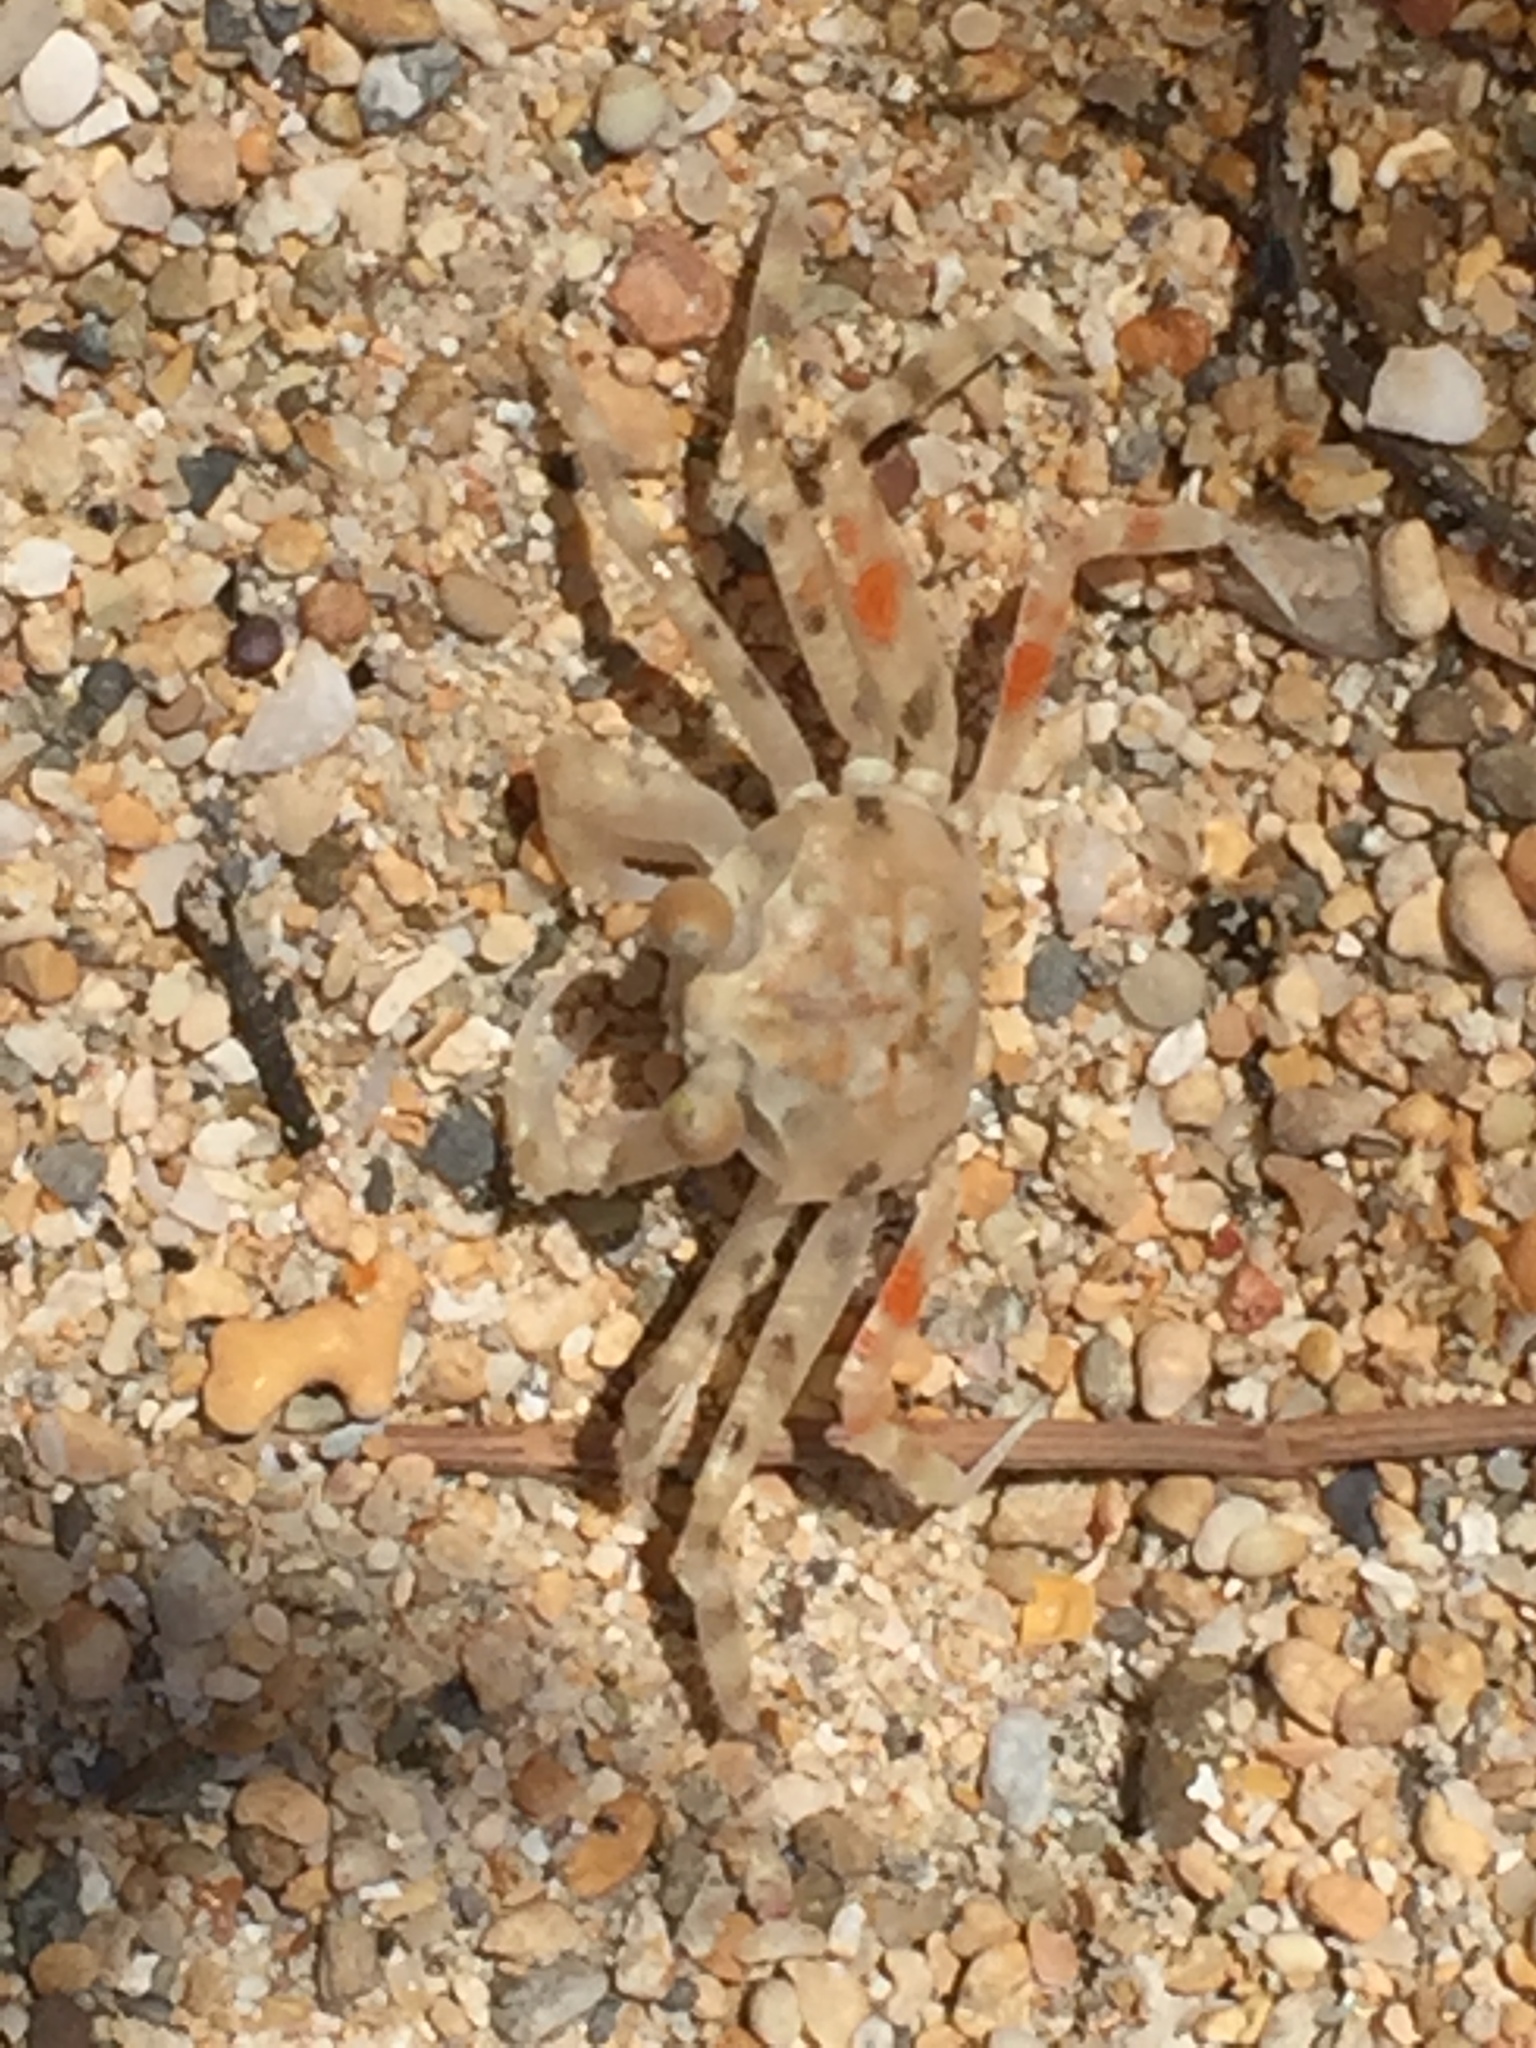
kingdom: Animalia
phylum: Arthropoda
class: Malacostraca
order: Decapoda
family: Ocypodidae
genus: Ocypode
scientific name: Ocypode pallidula
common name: Pallid ghost crab
